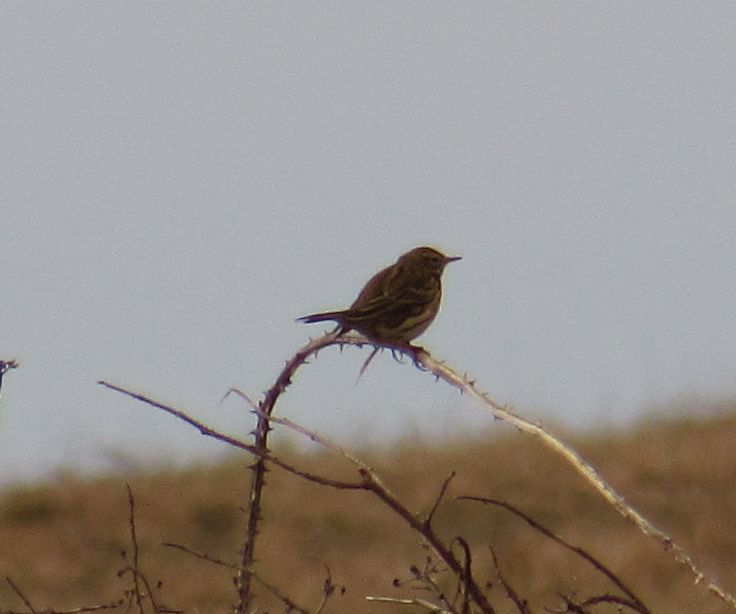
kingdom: Animalia
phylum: Chordata
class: Aves
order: Passeriformes
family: Motacillidae
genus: Anthus
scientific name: Anthus pratensis
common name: Meadow pipit
